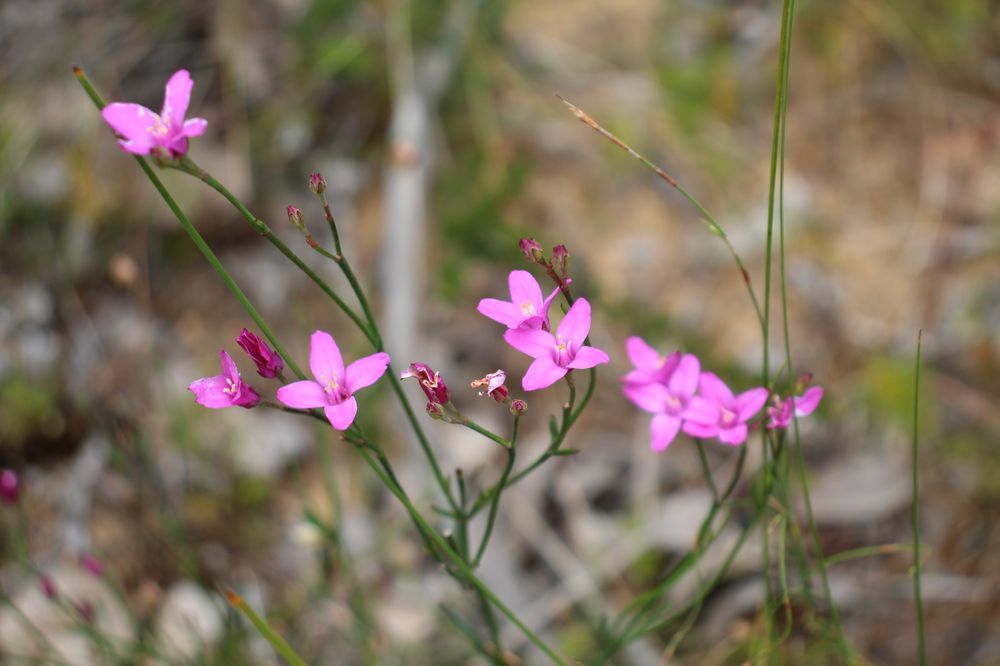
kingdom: Plantae
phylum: Tracheophyta
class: Magnoliopsida
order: Sapindales
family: Rutaceae
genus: Boronia
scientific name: Boronia juncea
